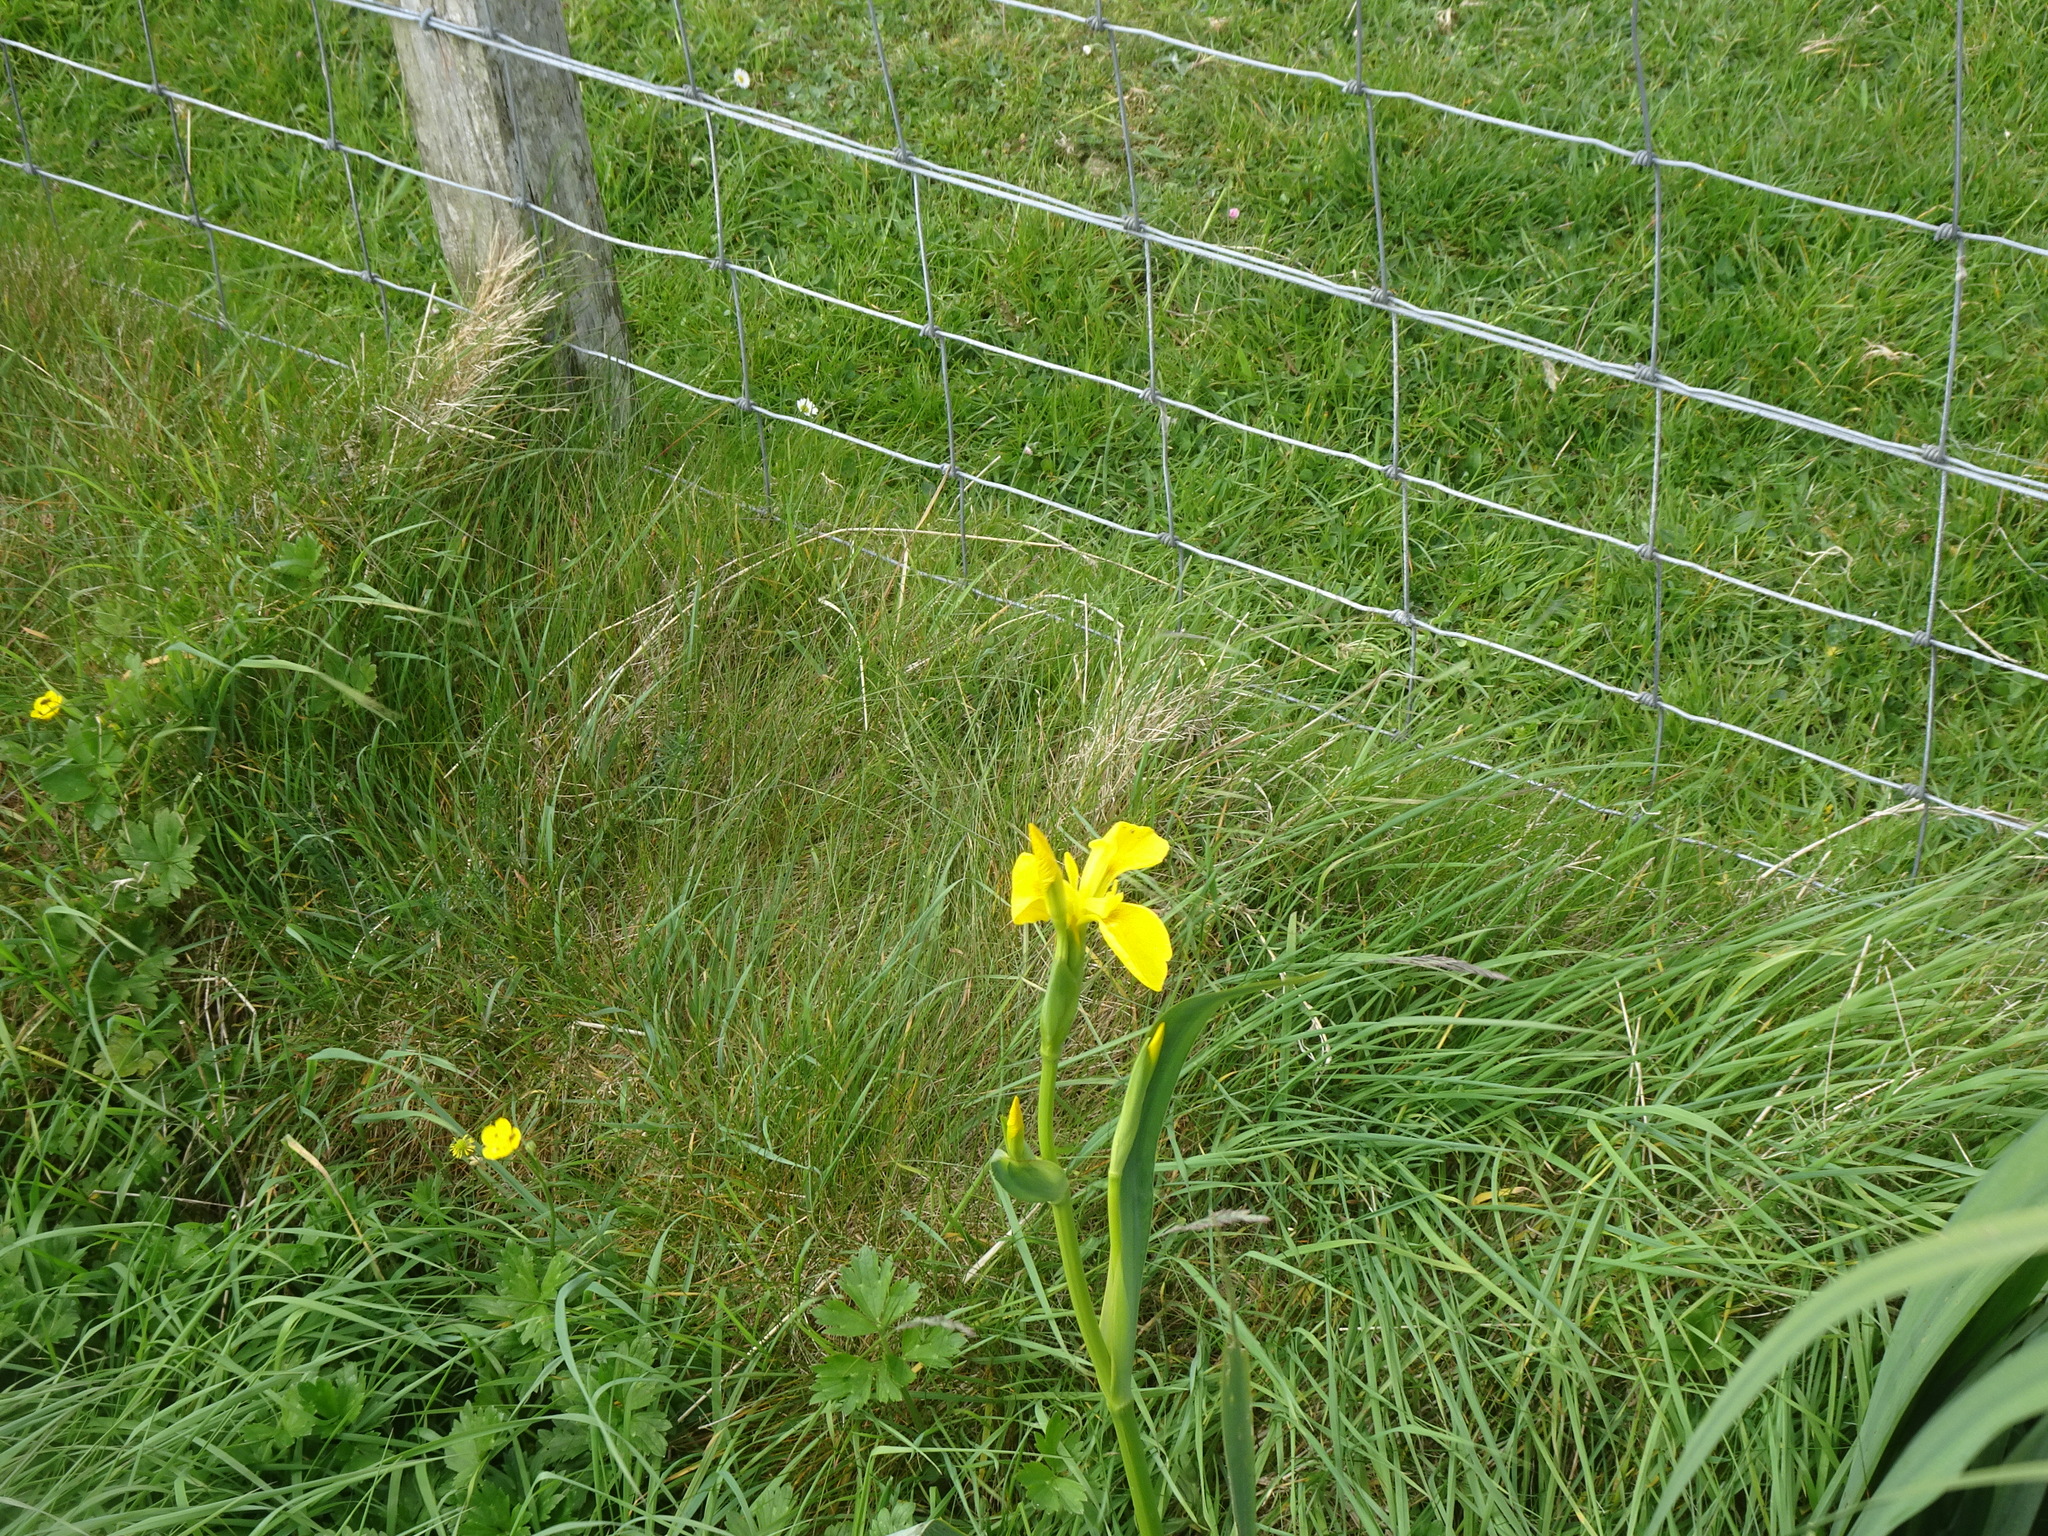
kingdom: Plantae
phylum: Tracheophyta
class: Liliopsida
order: Asparagales
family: Iridaceae
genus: Iris
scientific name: Iris pseudacorus
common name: Yellow flag
